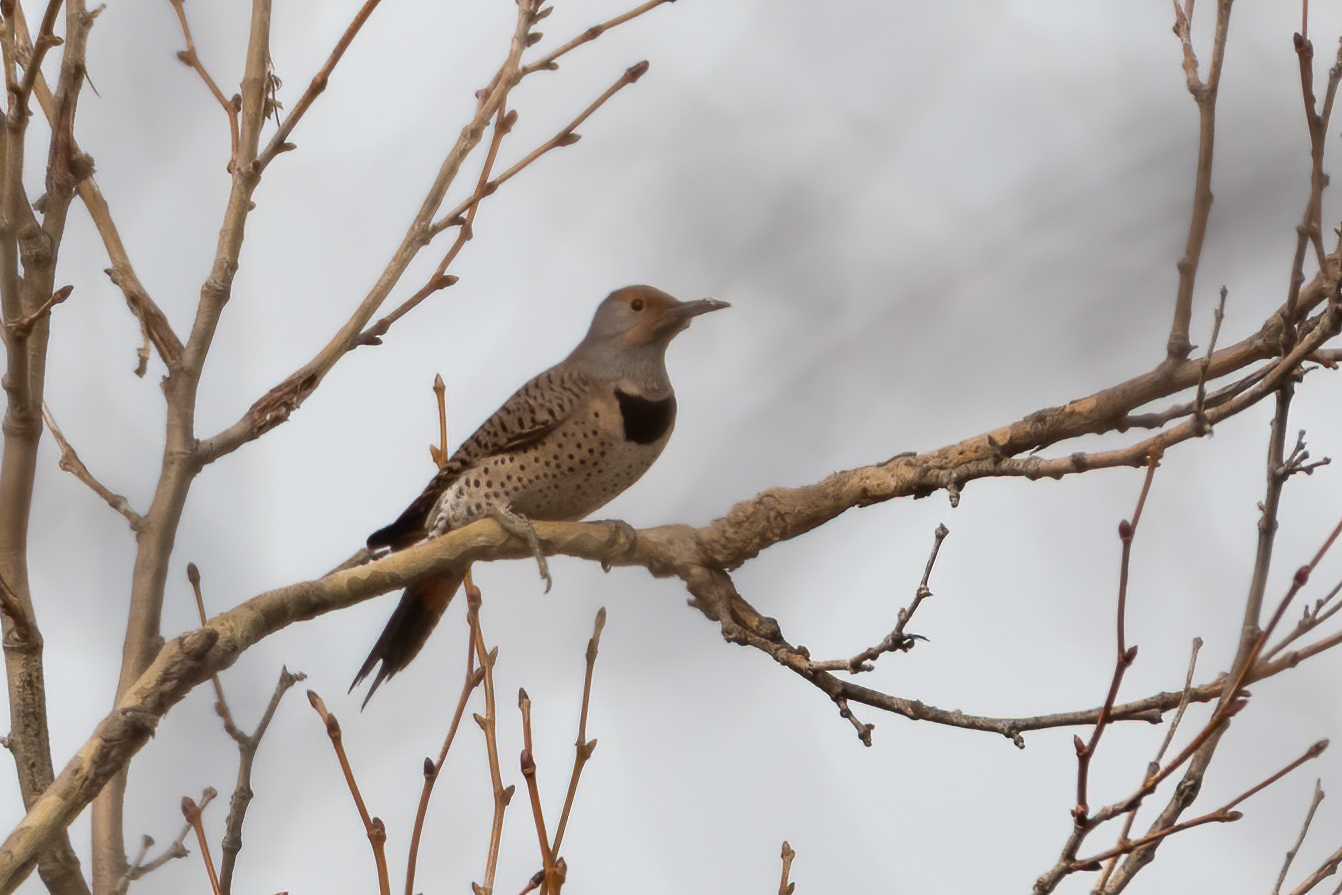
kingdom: Animalia
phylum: Chordata
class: Aves
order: Piciformes
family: Picidae
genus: Colaptes
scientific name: Colaptes auratus
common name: Northern flicker
